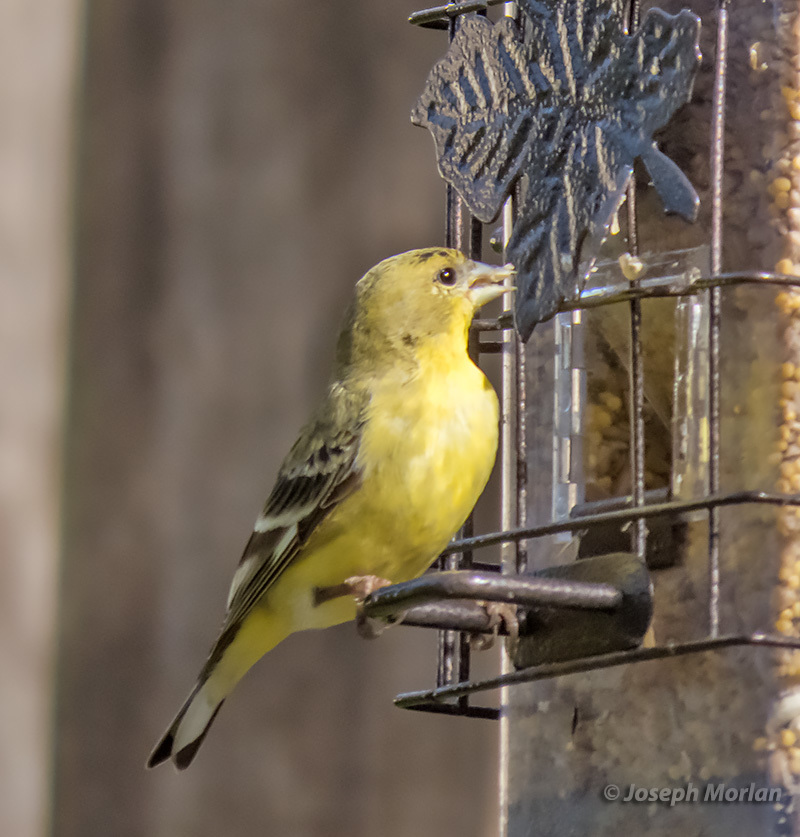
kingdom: Animalia
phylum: Chordata
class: Aves
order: Passeriformes
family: Fringillidae
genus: Spinus
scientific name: Spinus psaltria
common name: Lesser goldfinch
